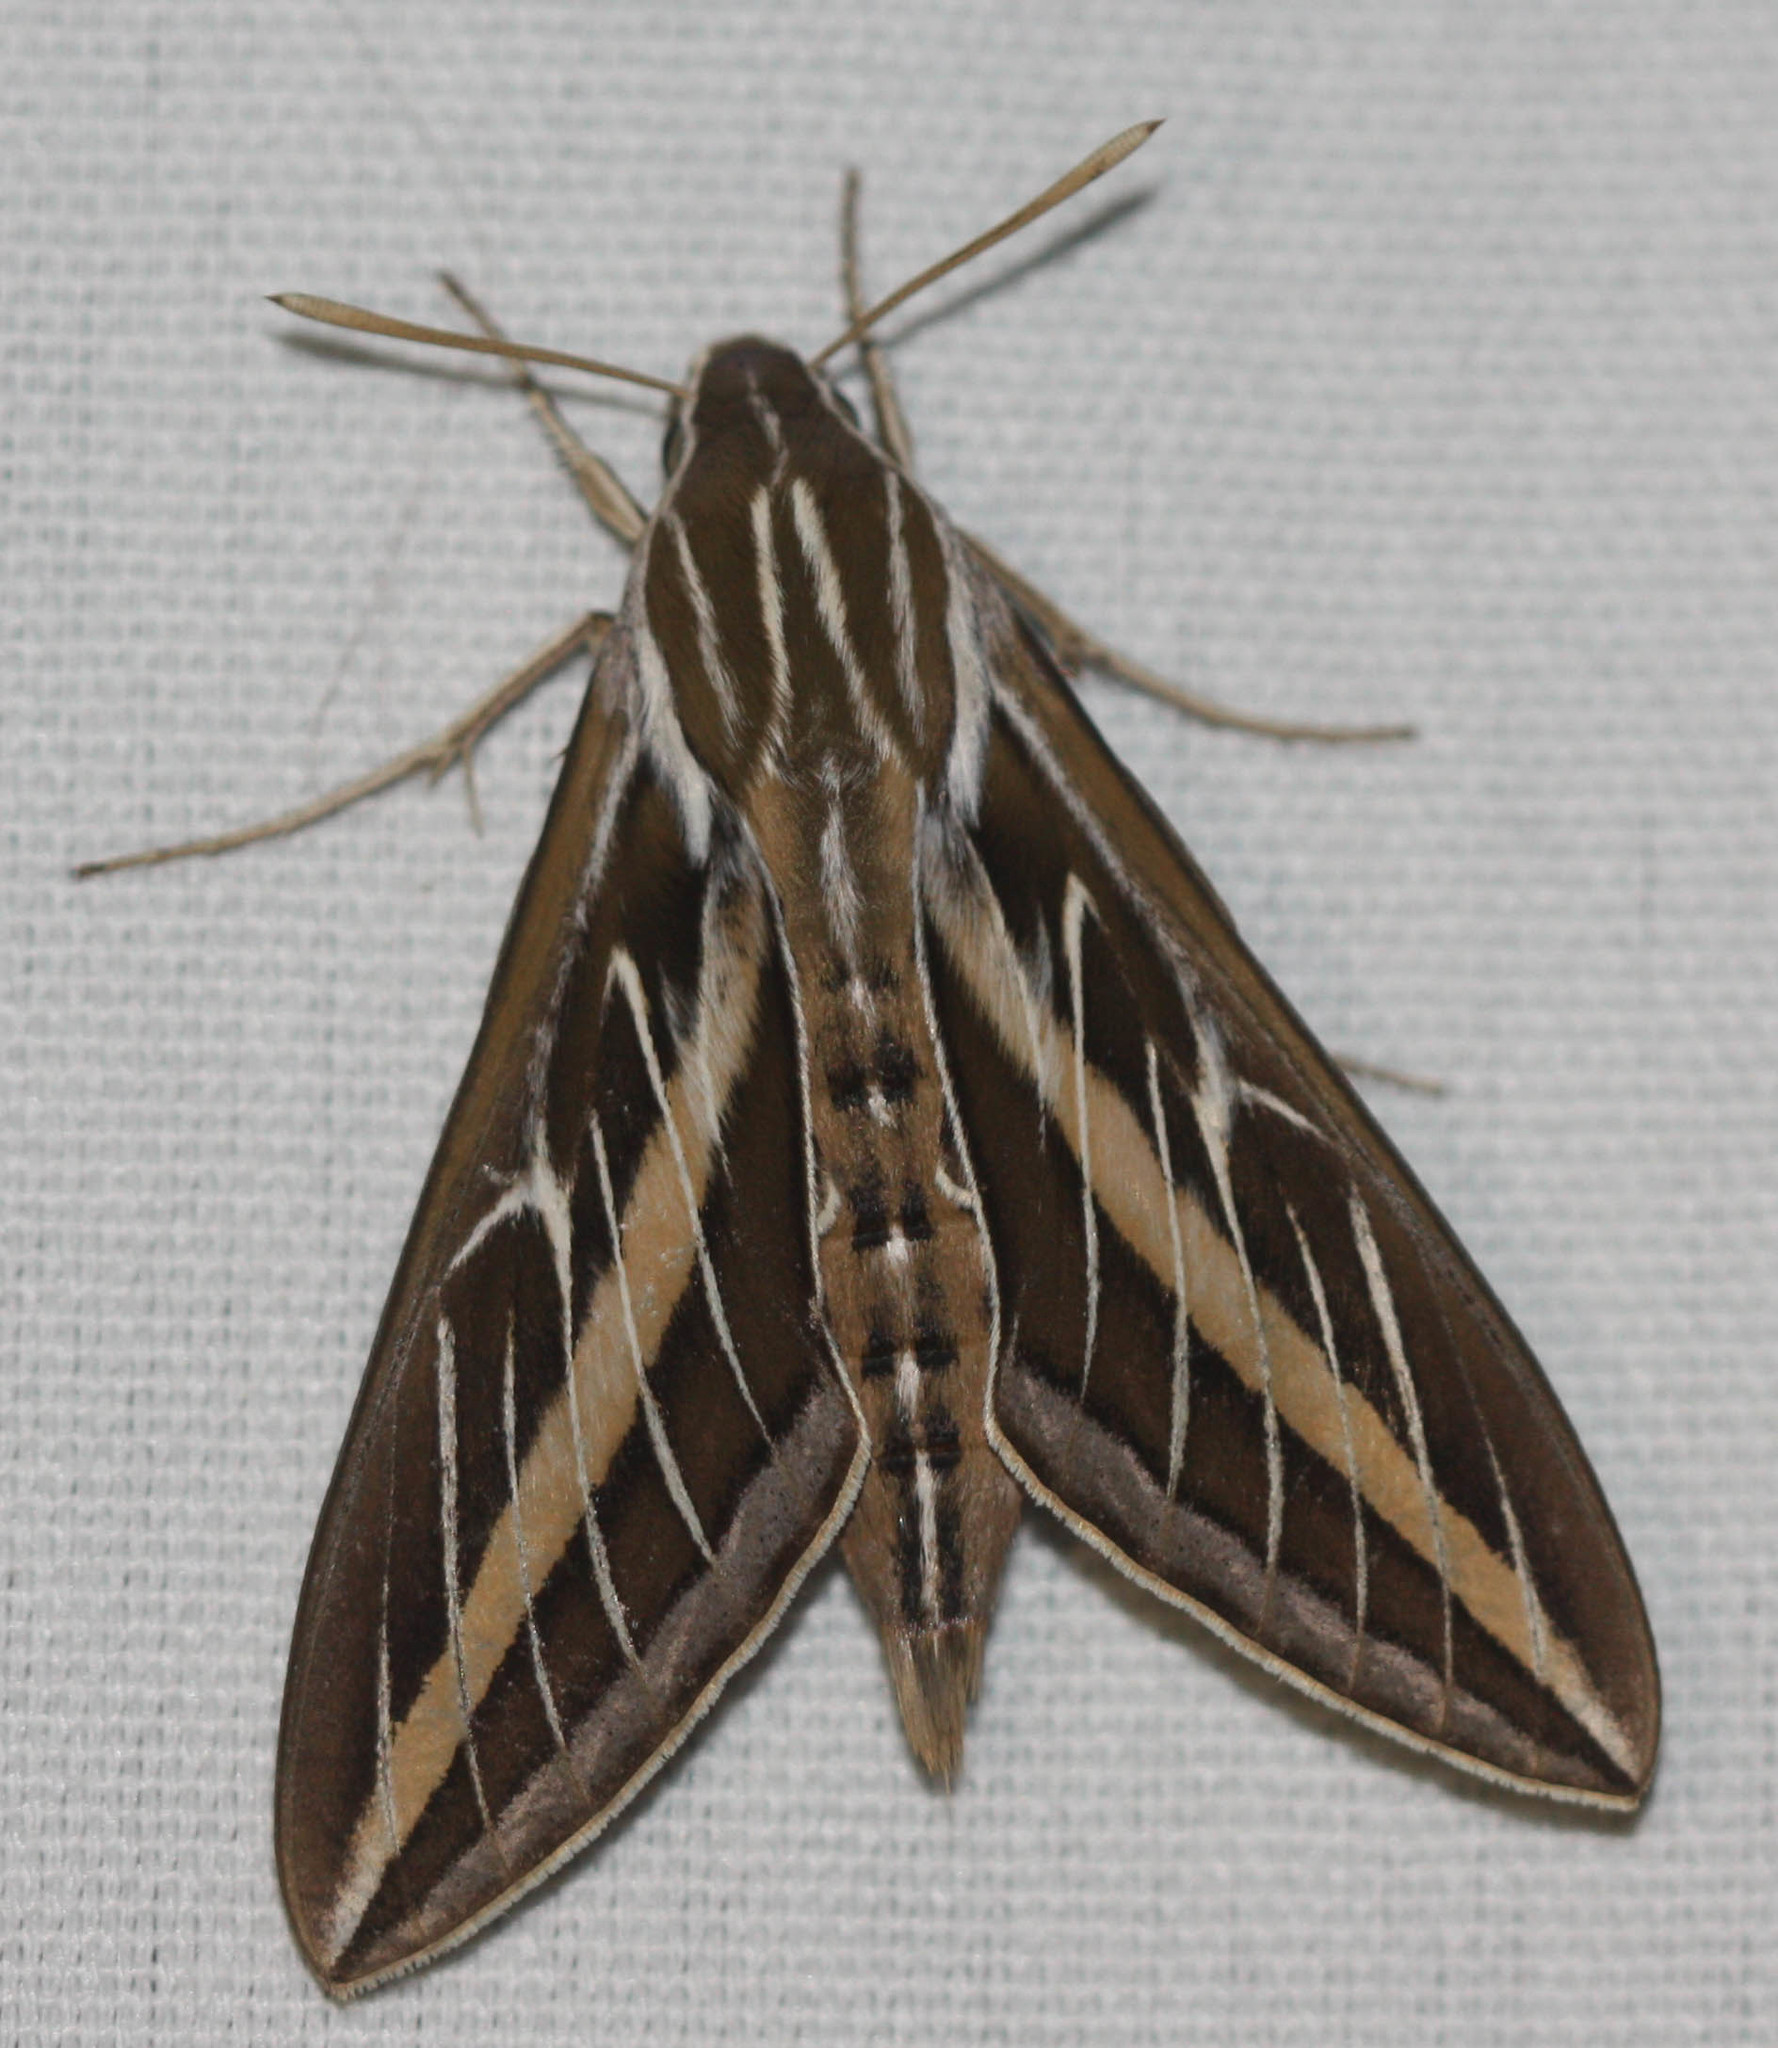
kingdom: Animalia
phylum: Arthropoda
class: Insecta
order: Lepidoptera
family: Sphingidae
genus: Hyles
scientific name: Hyles lineata
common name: White-lined sphinx
